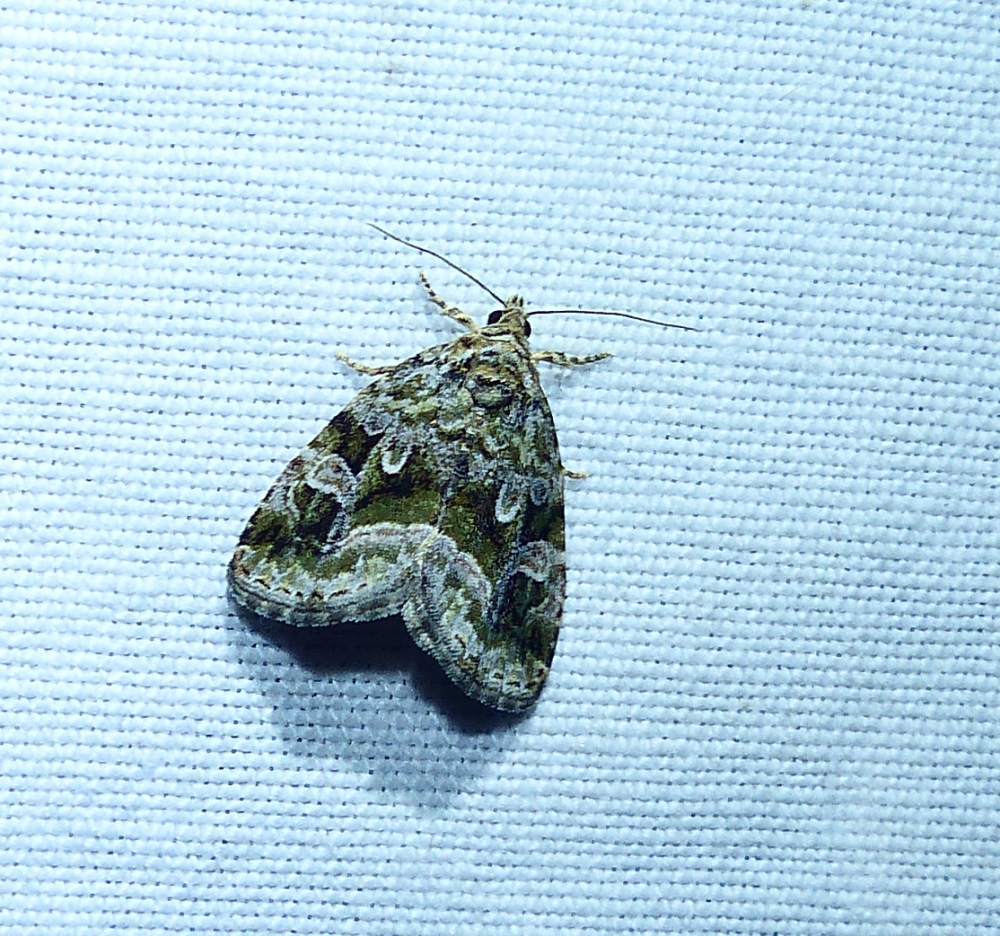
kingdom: Animalia
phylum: Arthropoda
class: Insecta
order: Lepidoptera
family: Noctuidae
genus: Protodeltote
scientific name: Protodeltote muscosula
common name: Large mossy glyph
